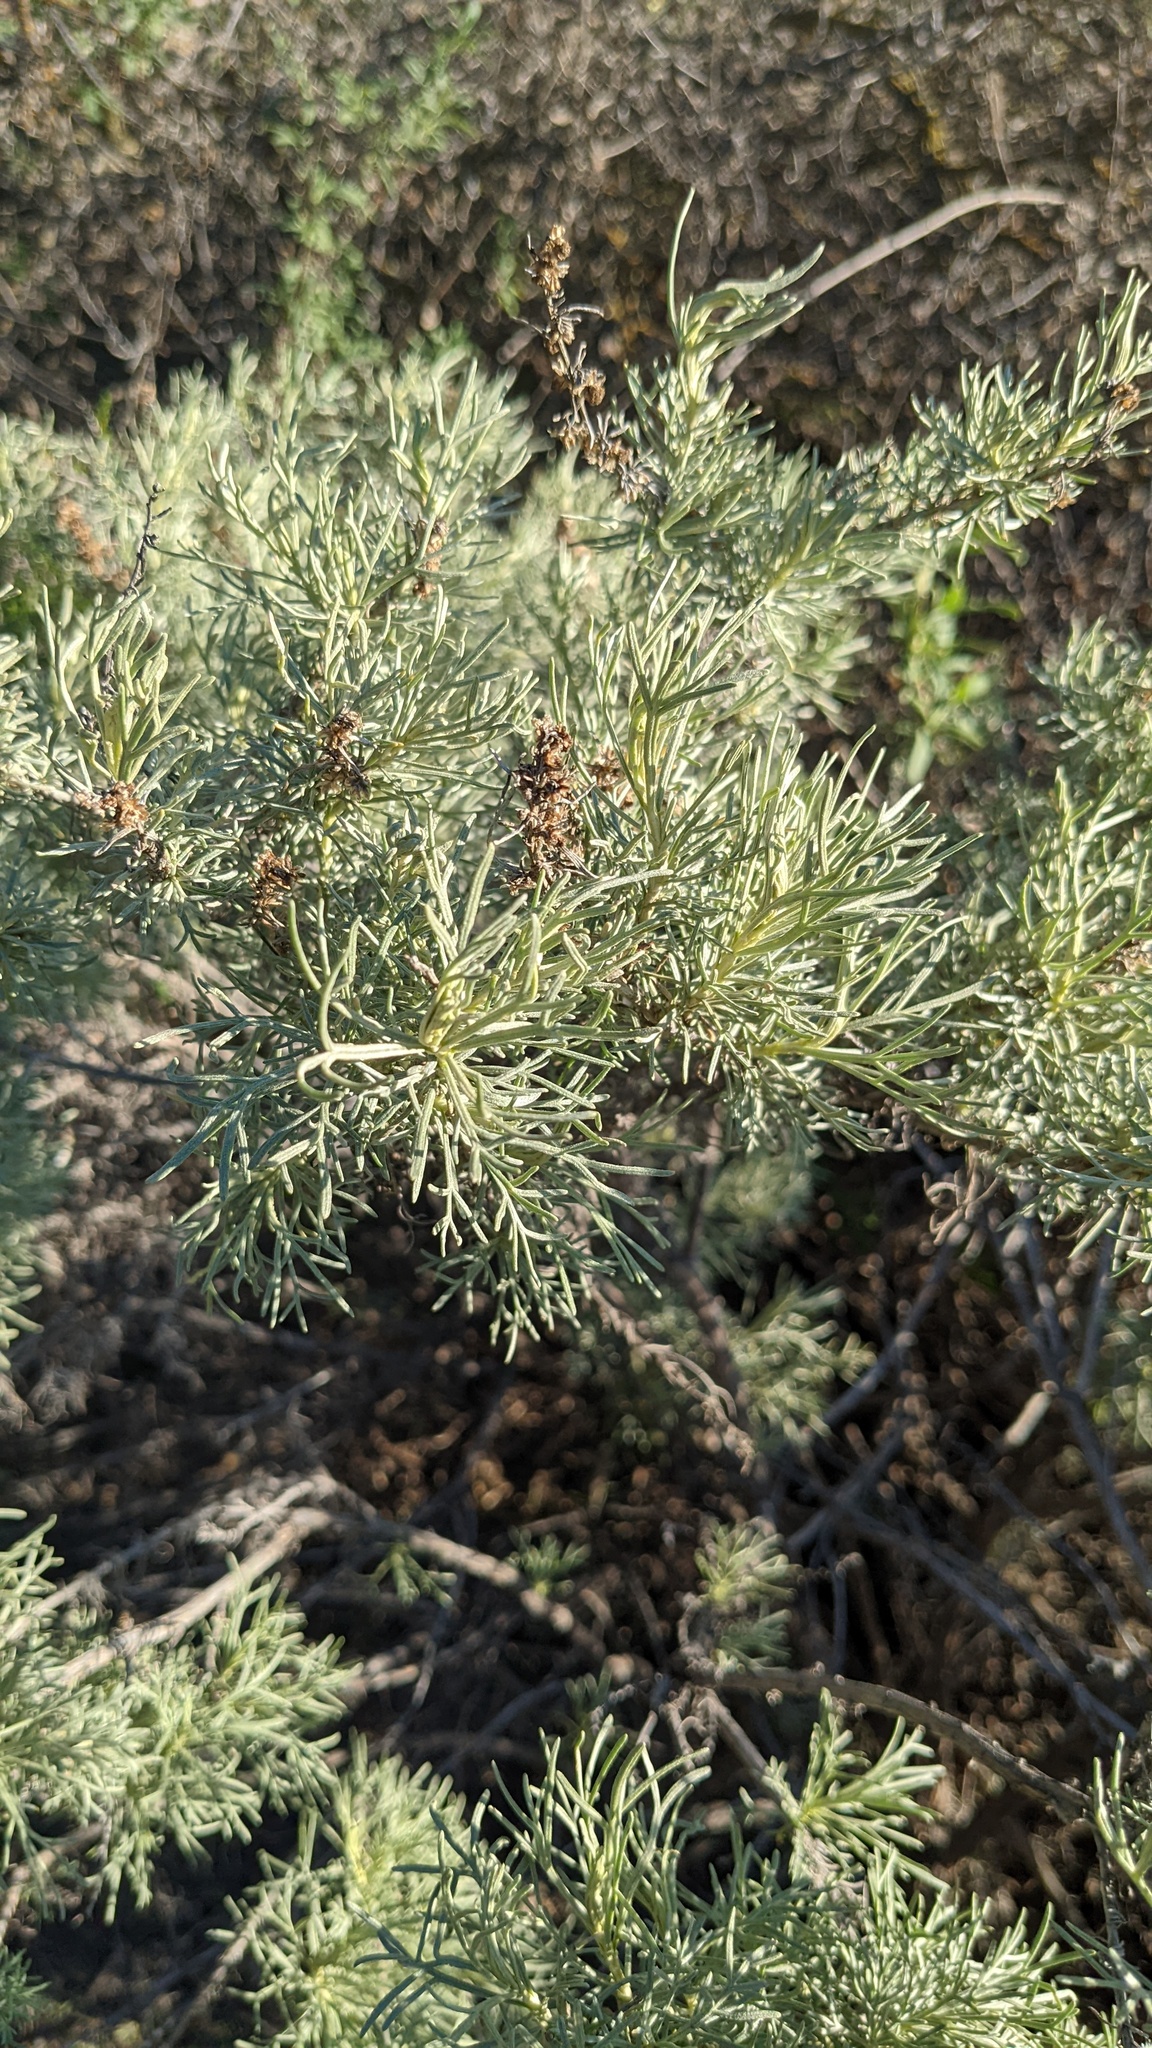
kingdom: Plantae
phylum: Tracheophyta
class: Magnoliopsida
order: Asterales
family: Asteraceae
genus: Artemisia
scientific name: Artemisia californica
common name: California sagebrush
